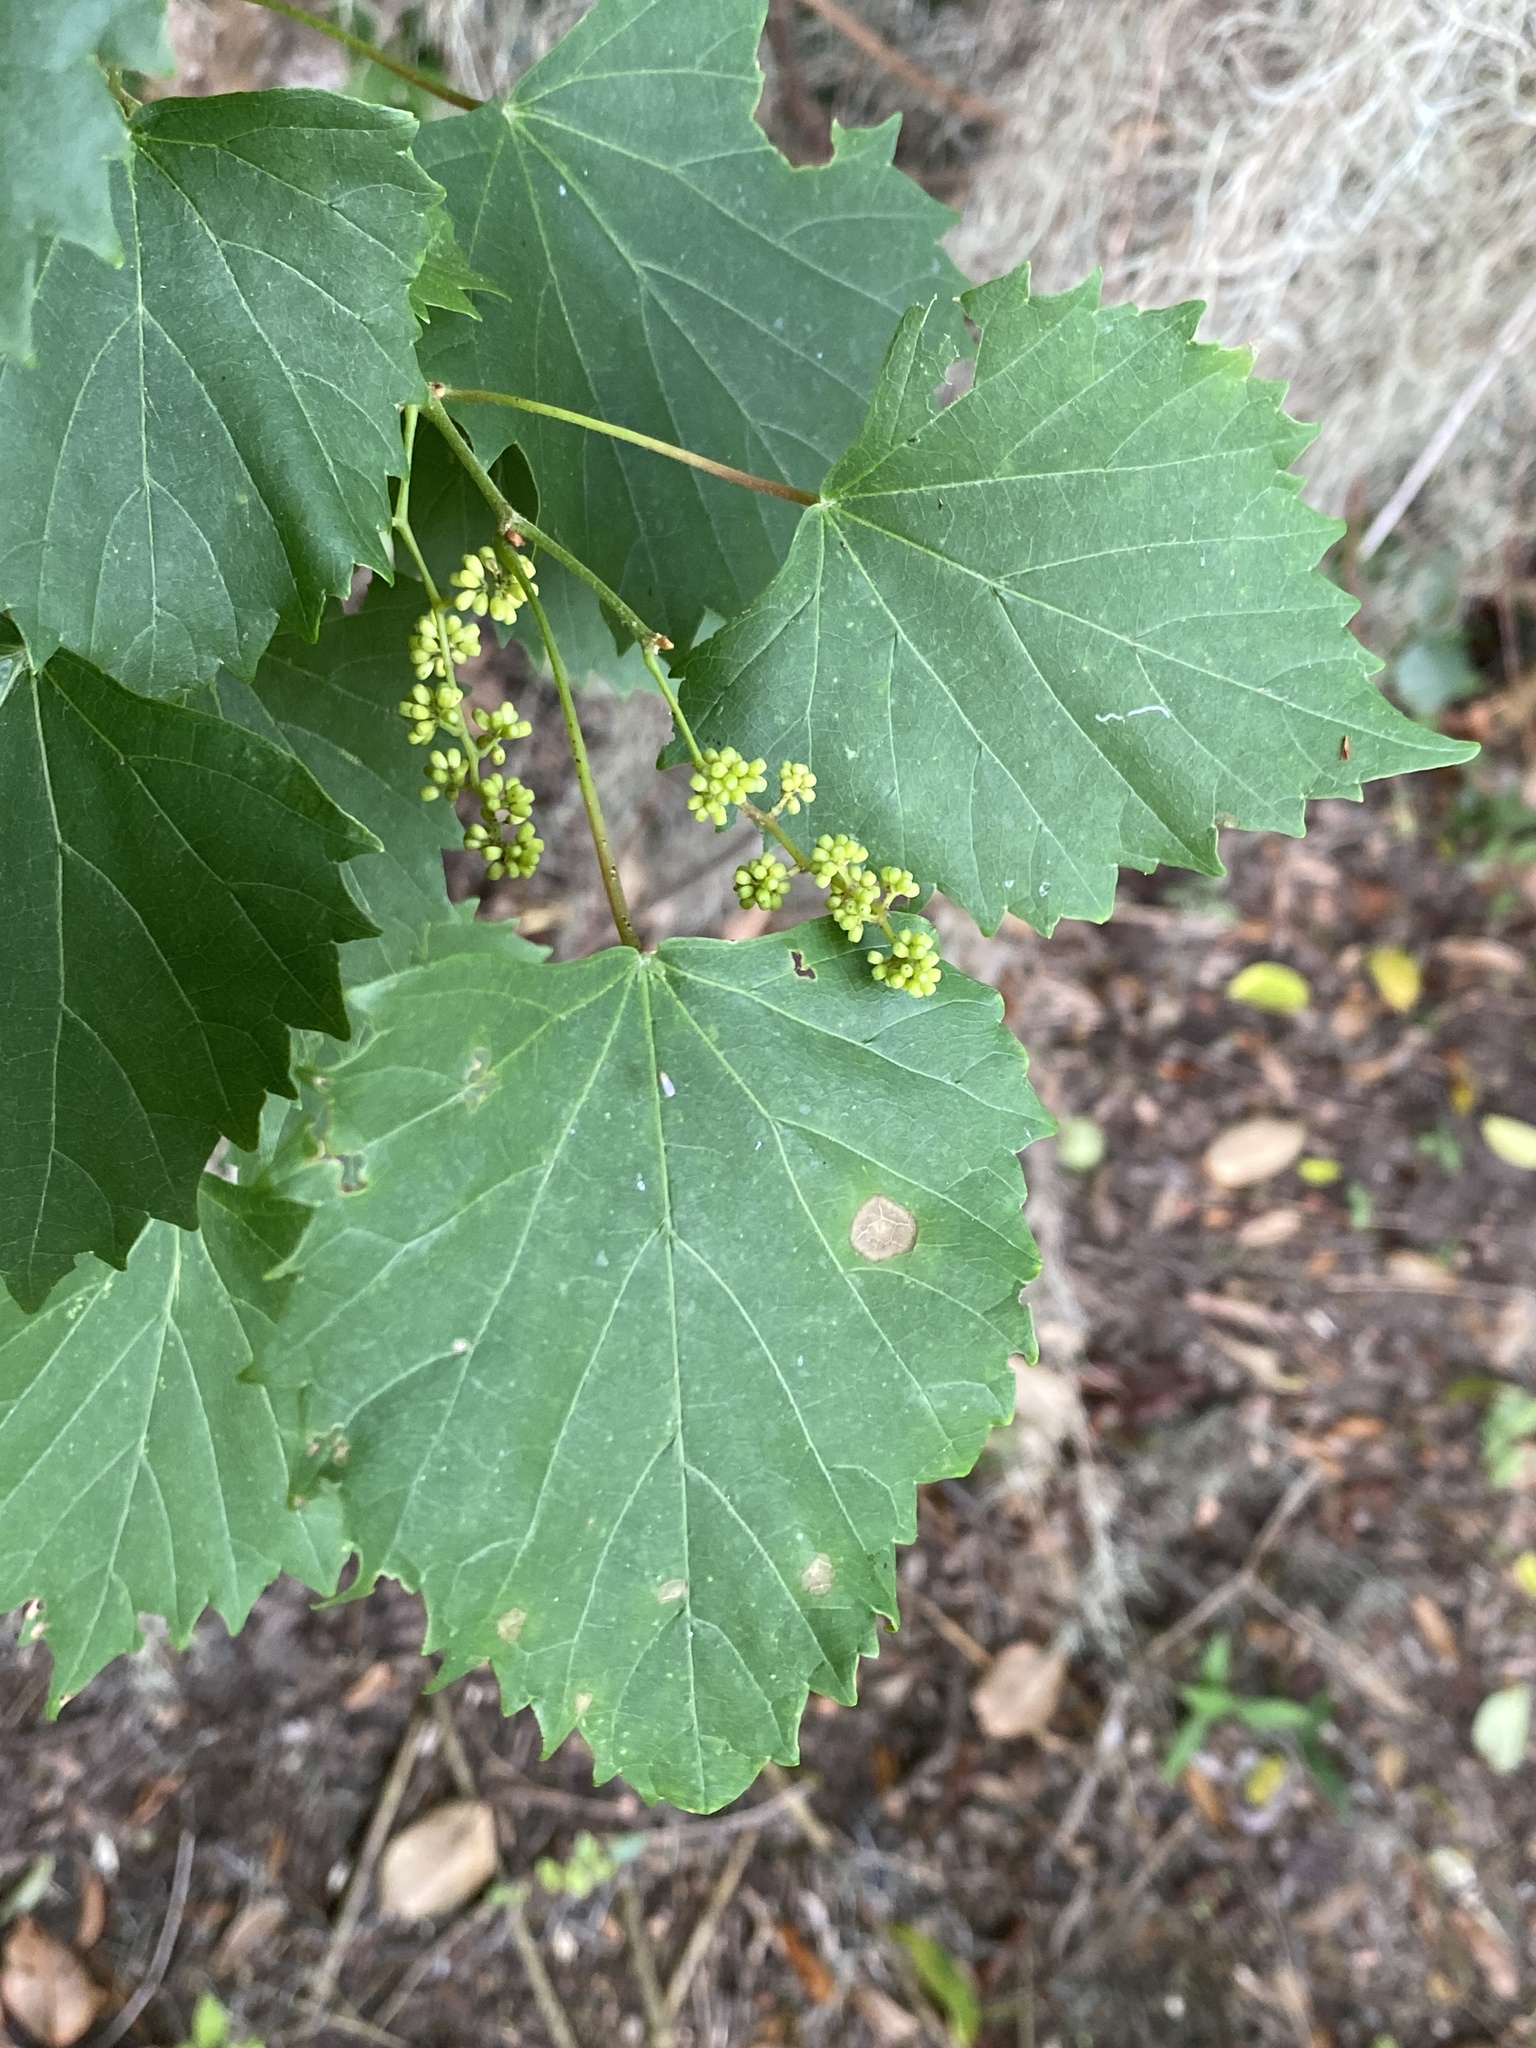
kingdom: Plantae
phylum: Tracheophyta
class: Magnoliopsida
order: Vitales
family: Vitaceae
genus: Vitis
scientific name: Vitis vulpina
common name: Frost grape
